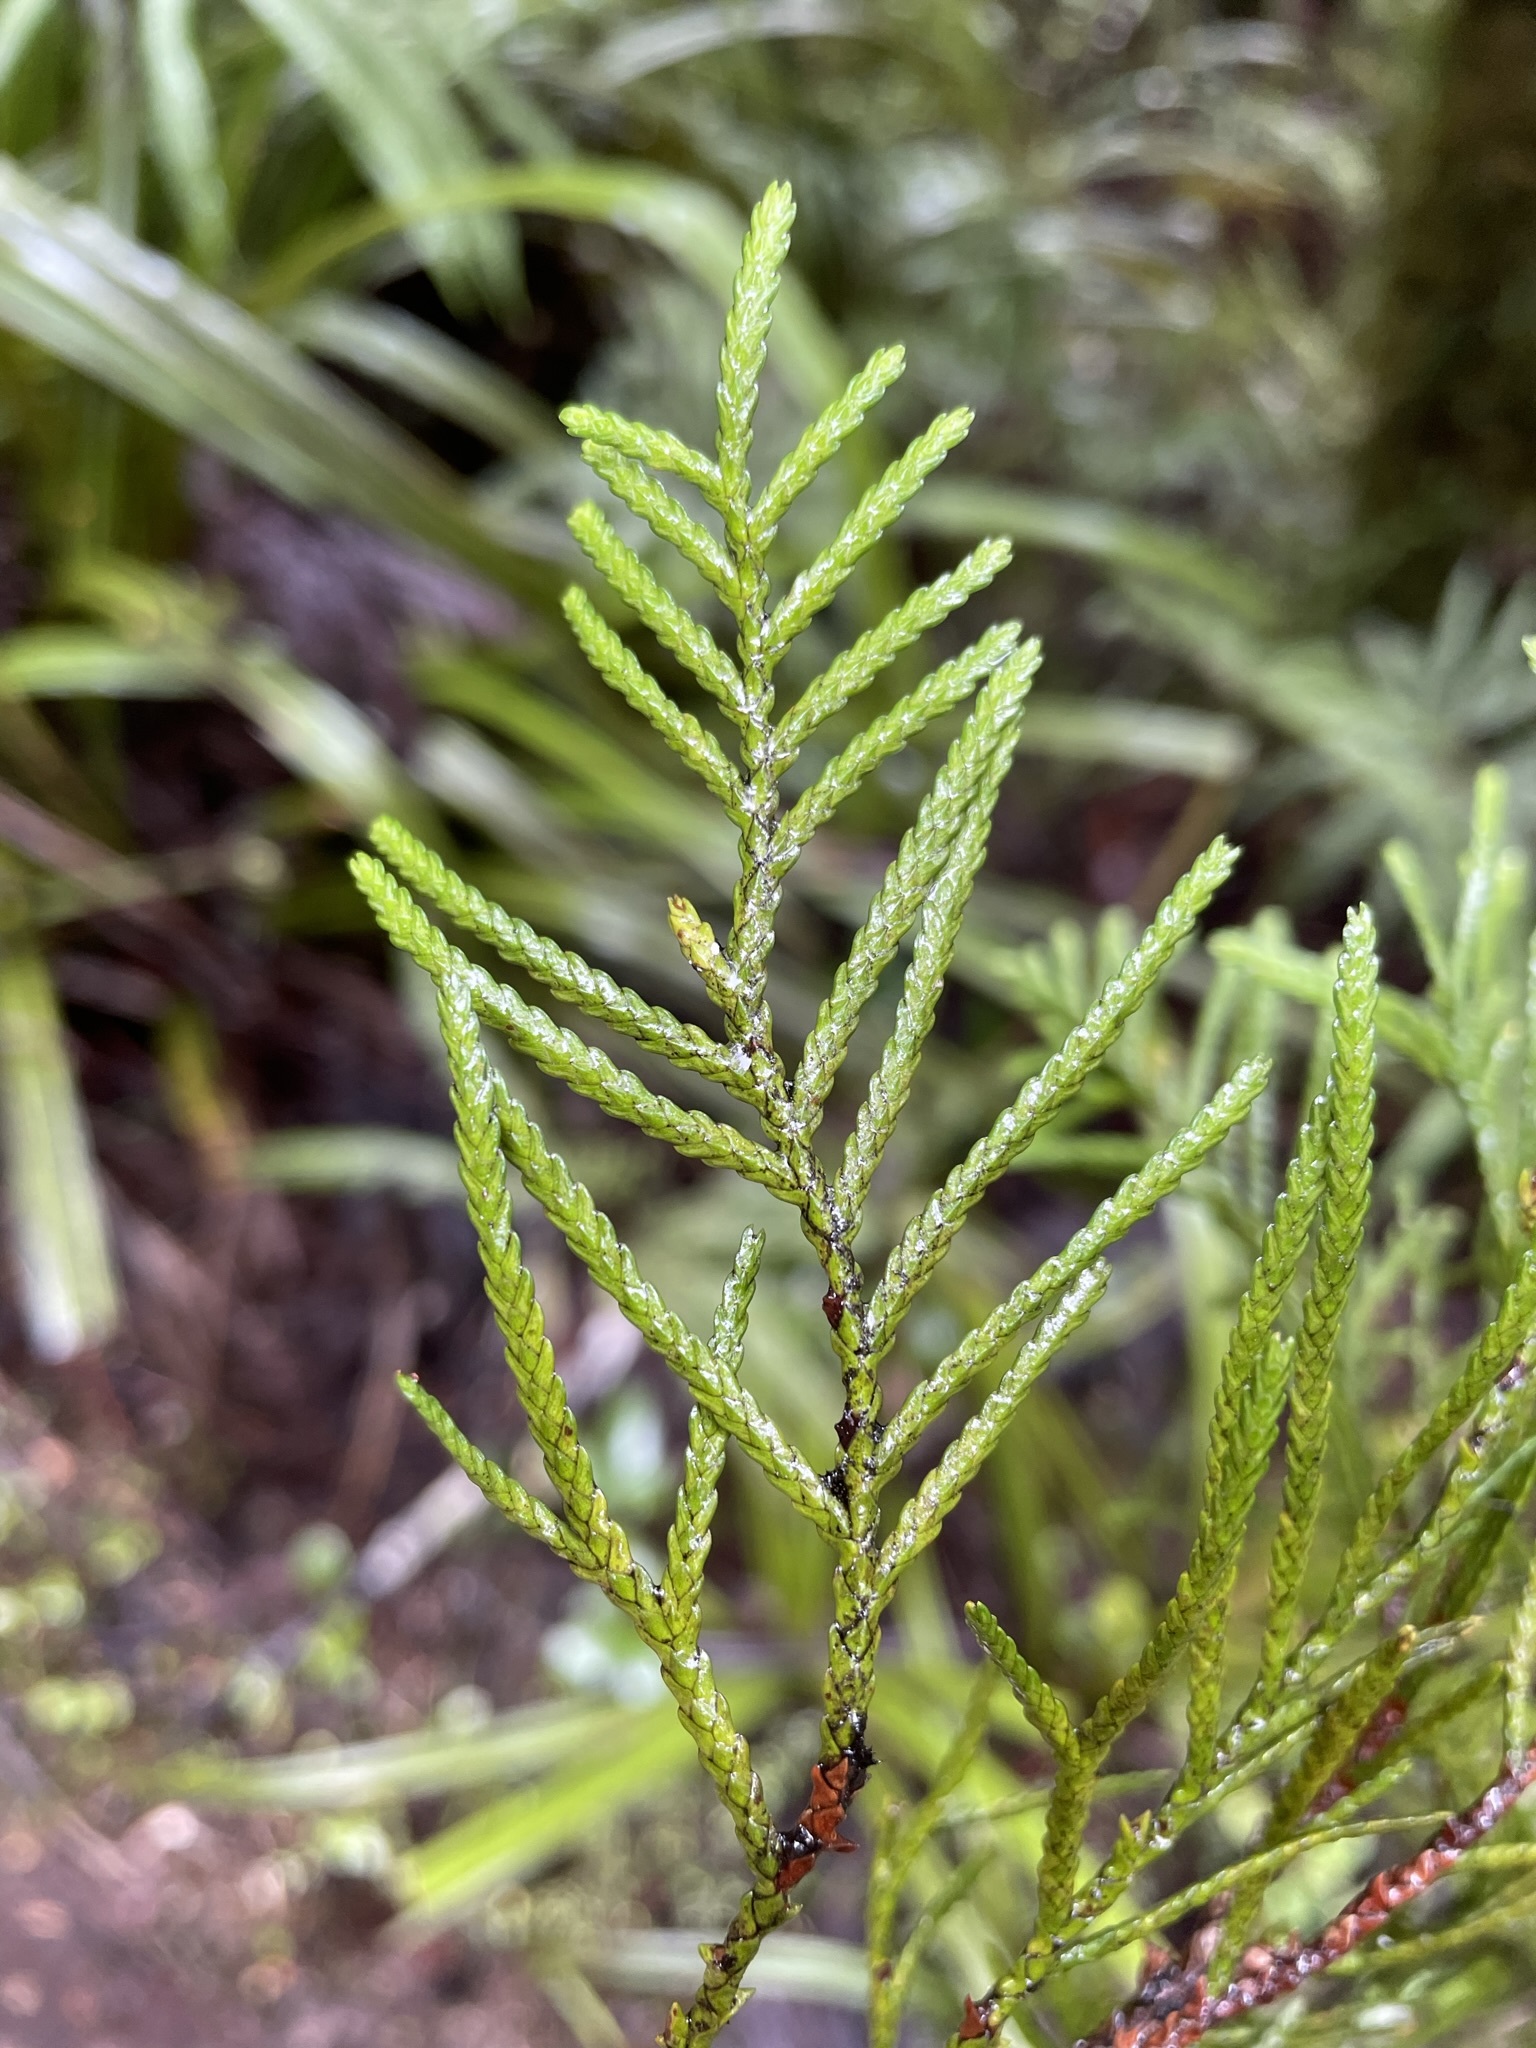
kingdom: Plantae
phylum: Tracheophyta
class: Pinopsida
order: Pinales
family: Cupressaceae
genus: Libocedrus
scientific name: Libocedrus bidwillii
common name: Cedar
